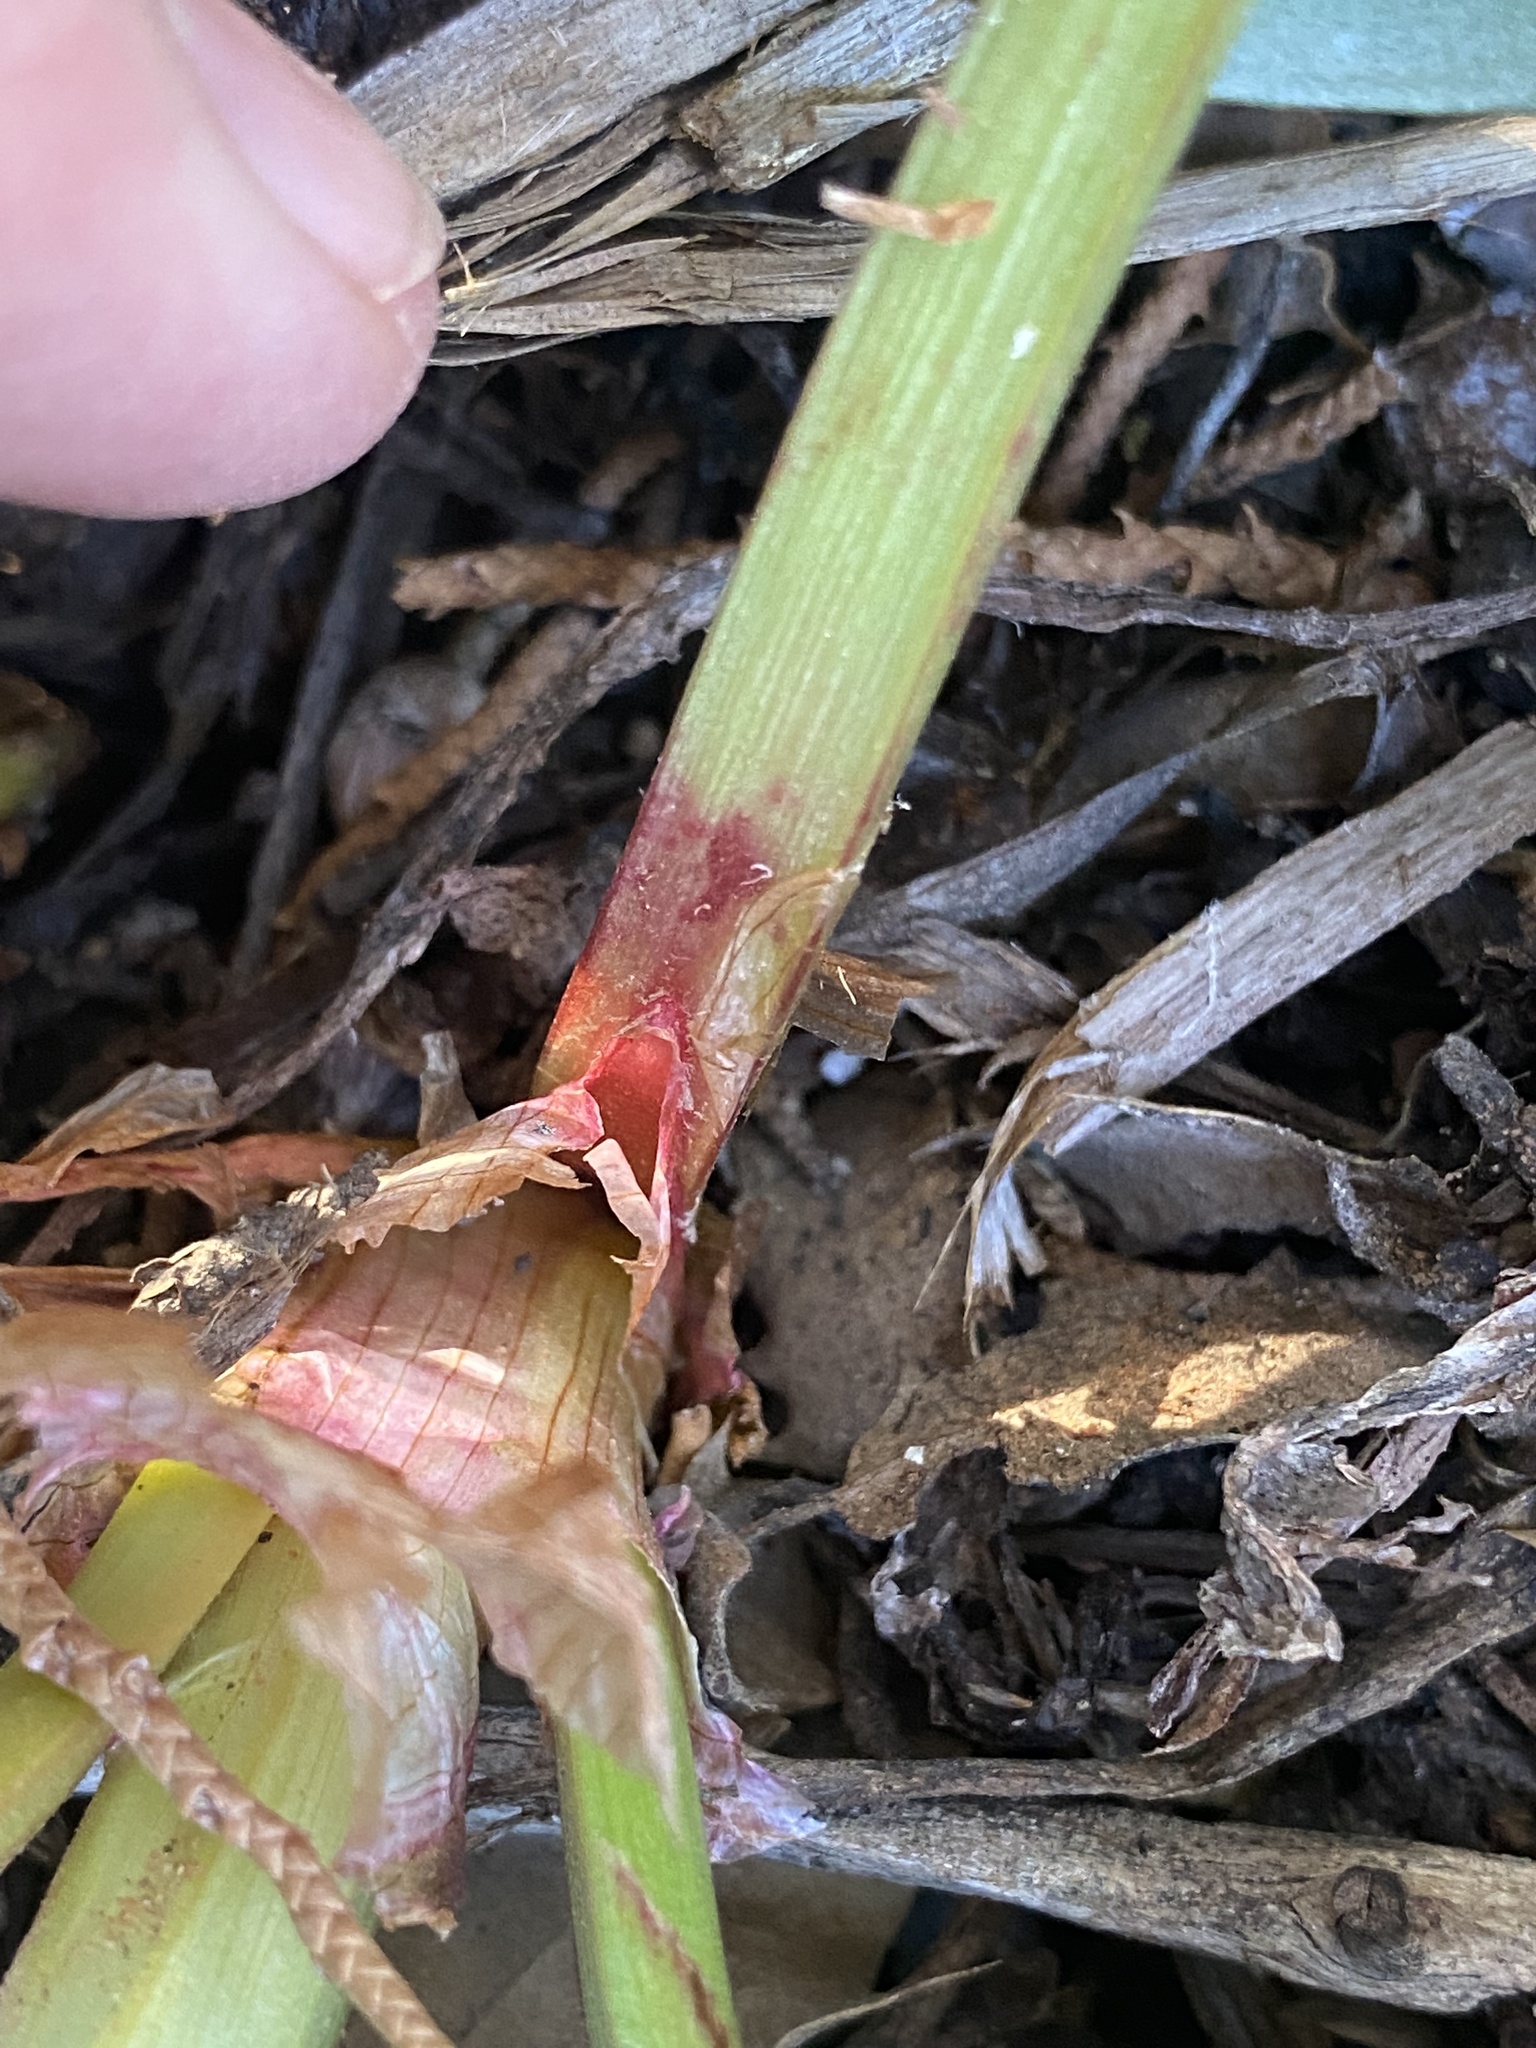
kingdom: Plantae
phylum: Tracheophyta
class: Magnoliopsida
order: Caryophyllales
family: Polygonaceae
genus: Rumex
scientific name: Rumex hymenosepalus
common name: Ganagra
